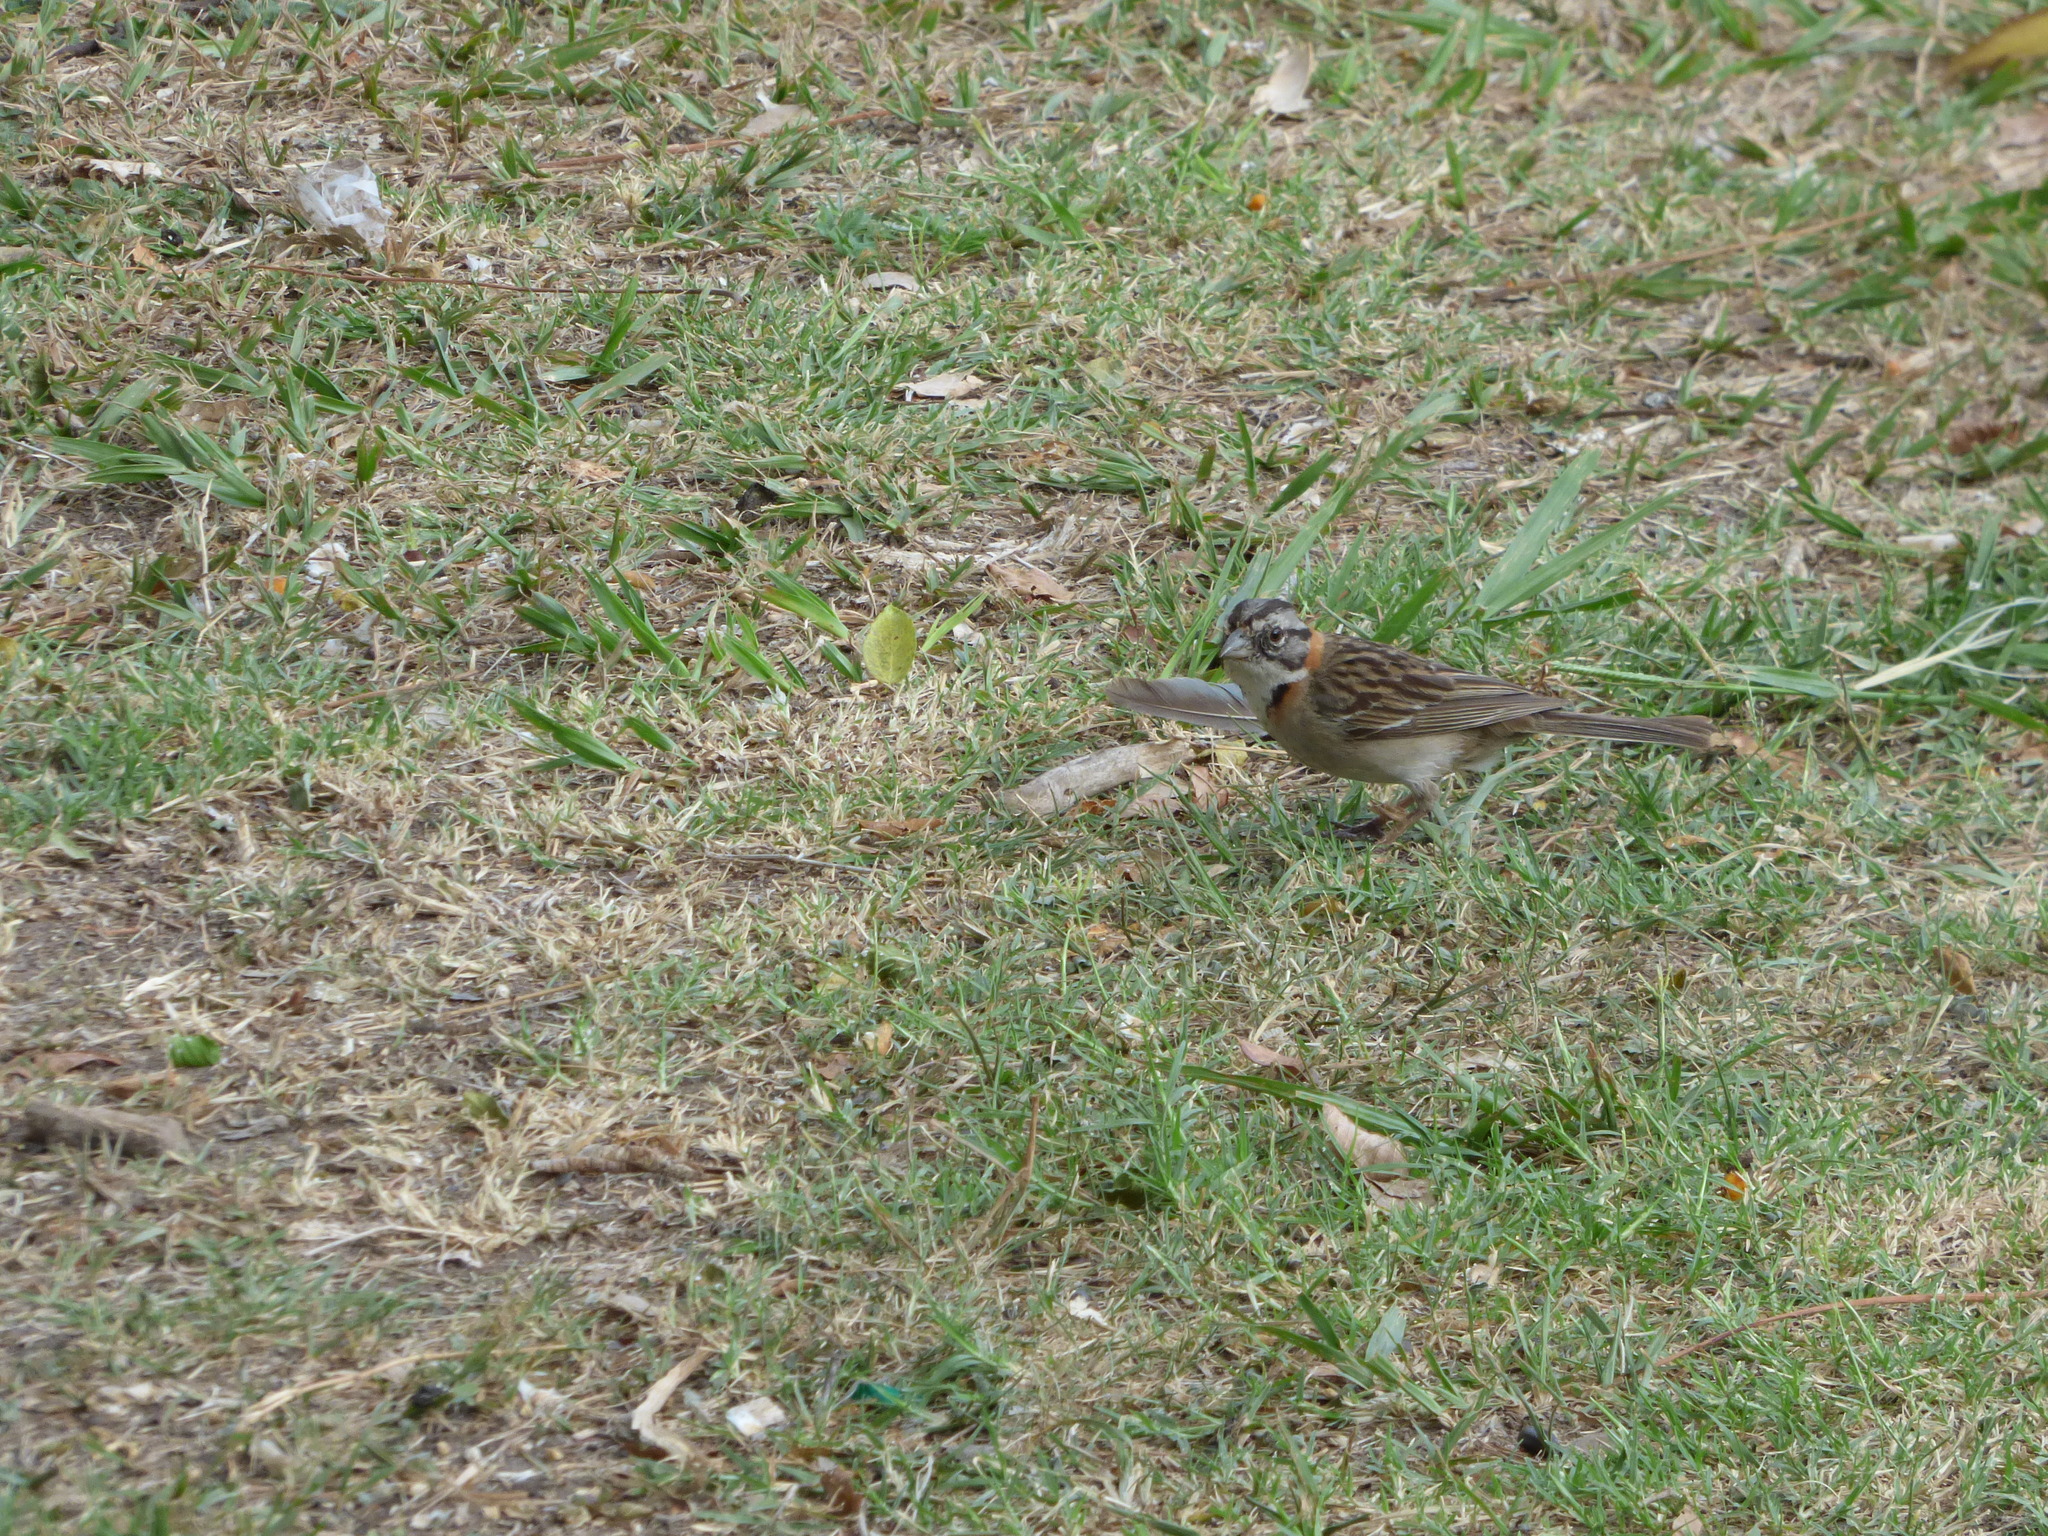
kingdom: Animalia
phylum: Chordata
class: Aves
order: Passeriformes
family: Passerellidae
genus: Zonotrichia
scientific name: Zonotrichia capensis
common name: Rufous-collared sparrow
